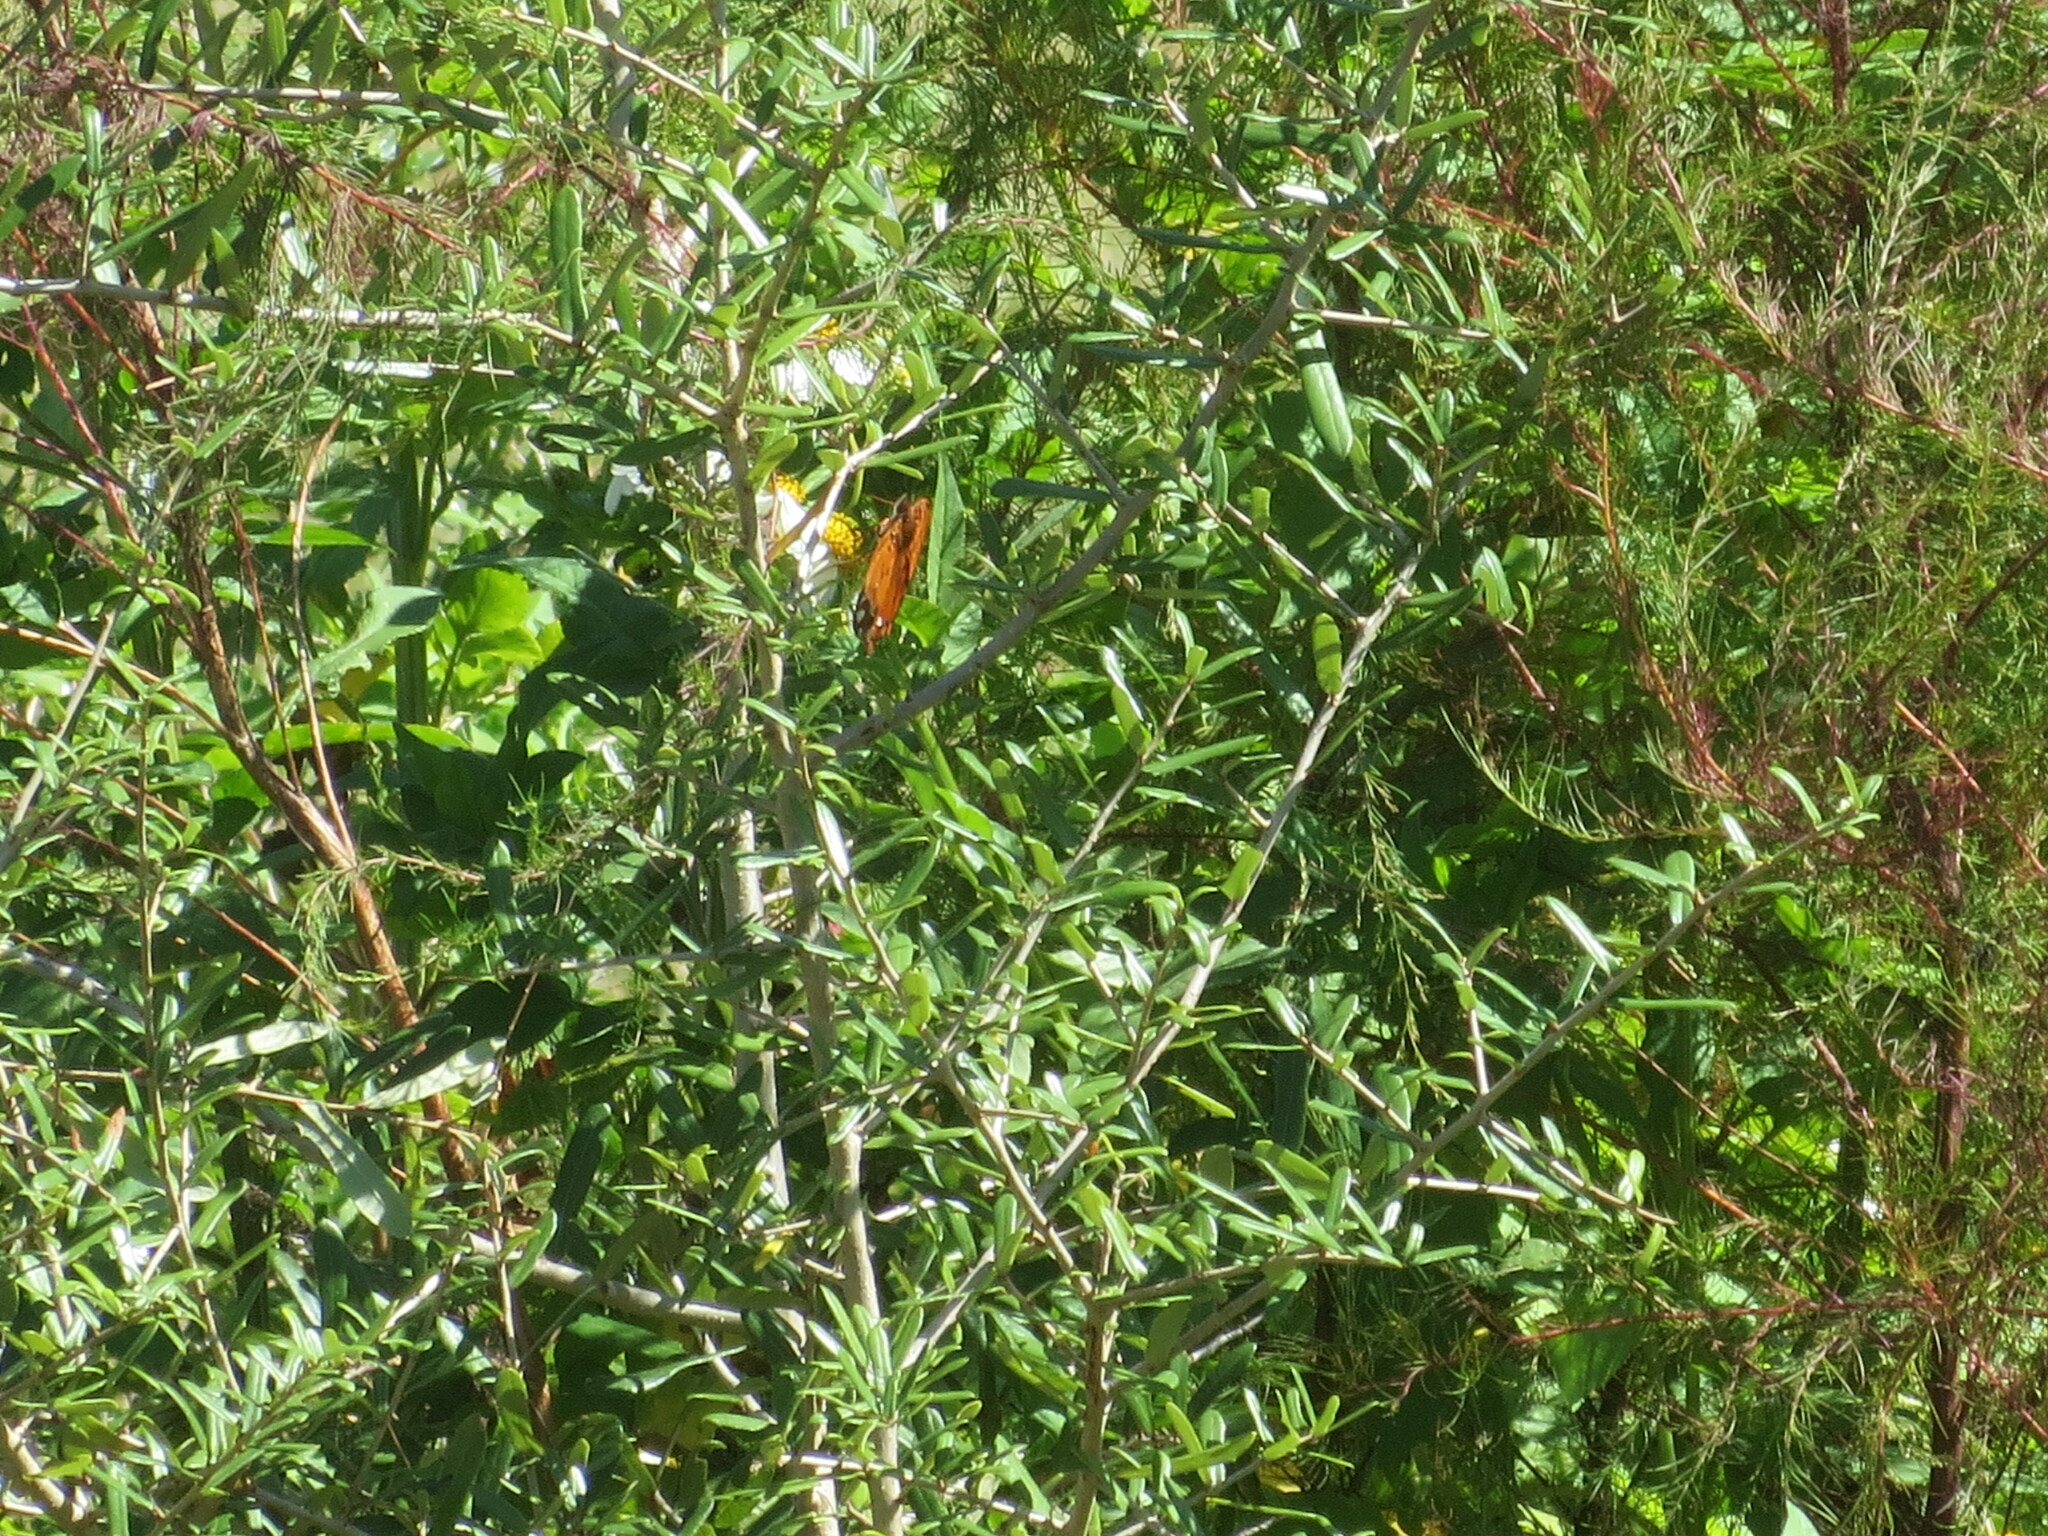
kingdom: Animalia
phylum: Arthropoda
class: Insecta
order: Lepidoptera
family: Nymphalidae
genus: Dione
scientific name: Dione vanillae
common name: Gulf fritillary
